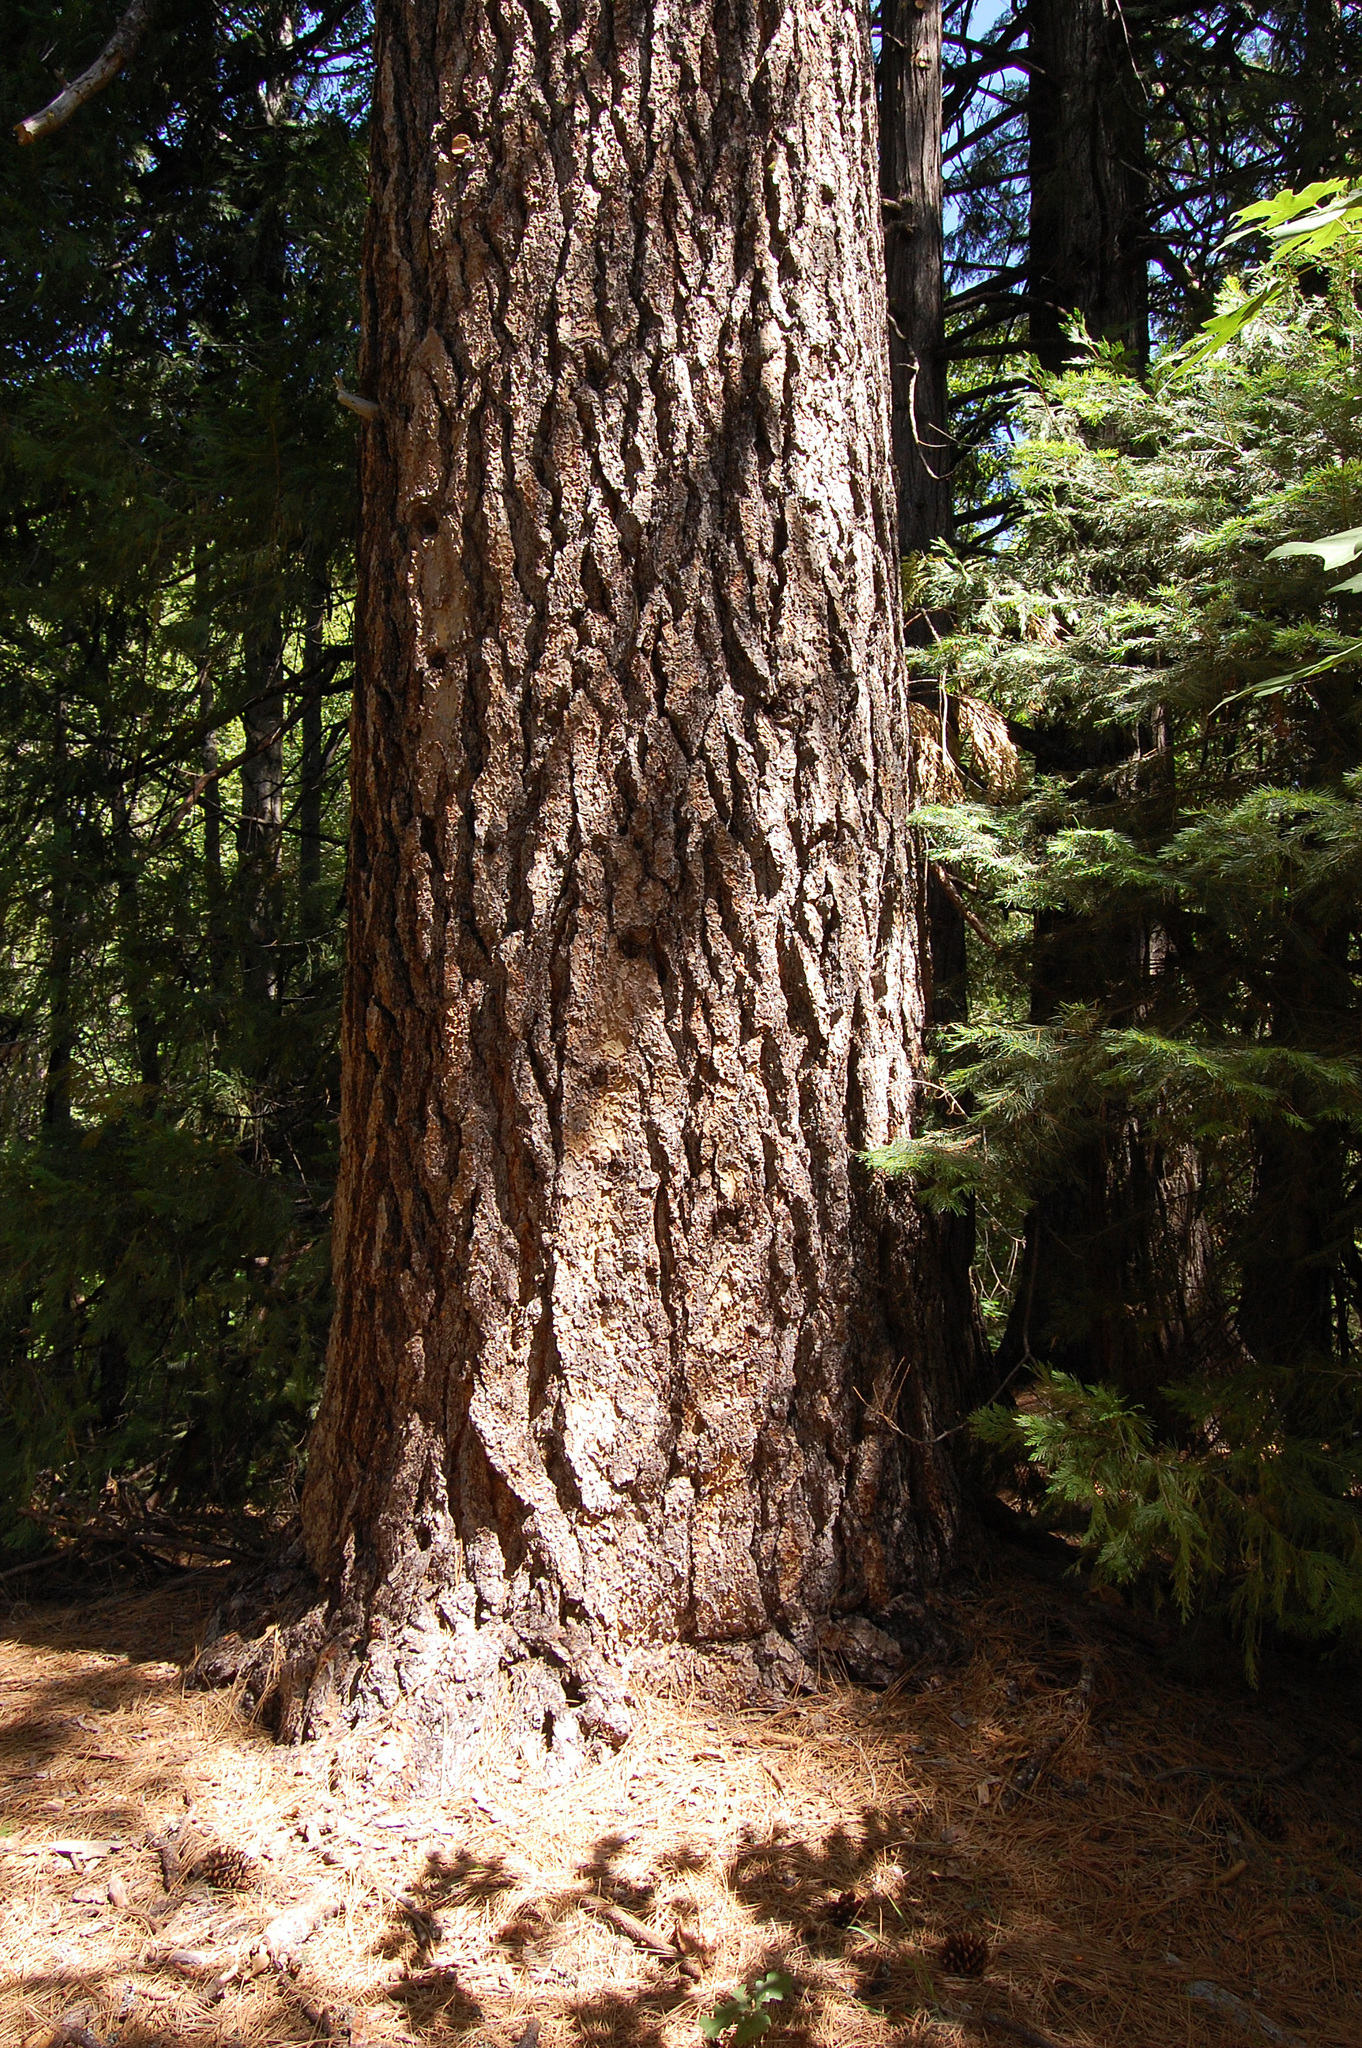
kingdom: Plantae
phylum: Tracheophyta
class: Pinopsida
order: Pinales
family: Pinaceae
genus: Pinus
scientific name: Pinus lambertiana
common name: Sugar pine
